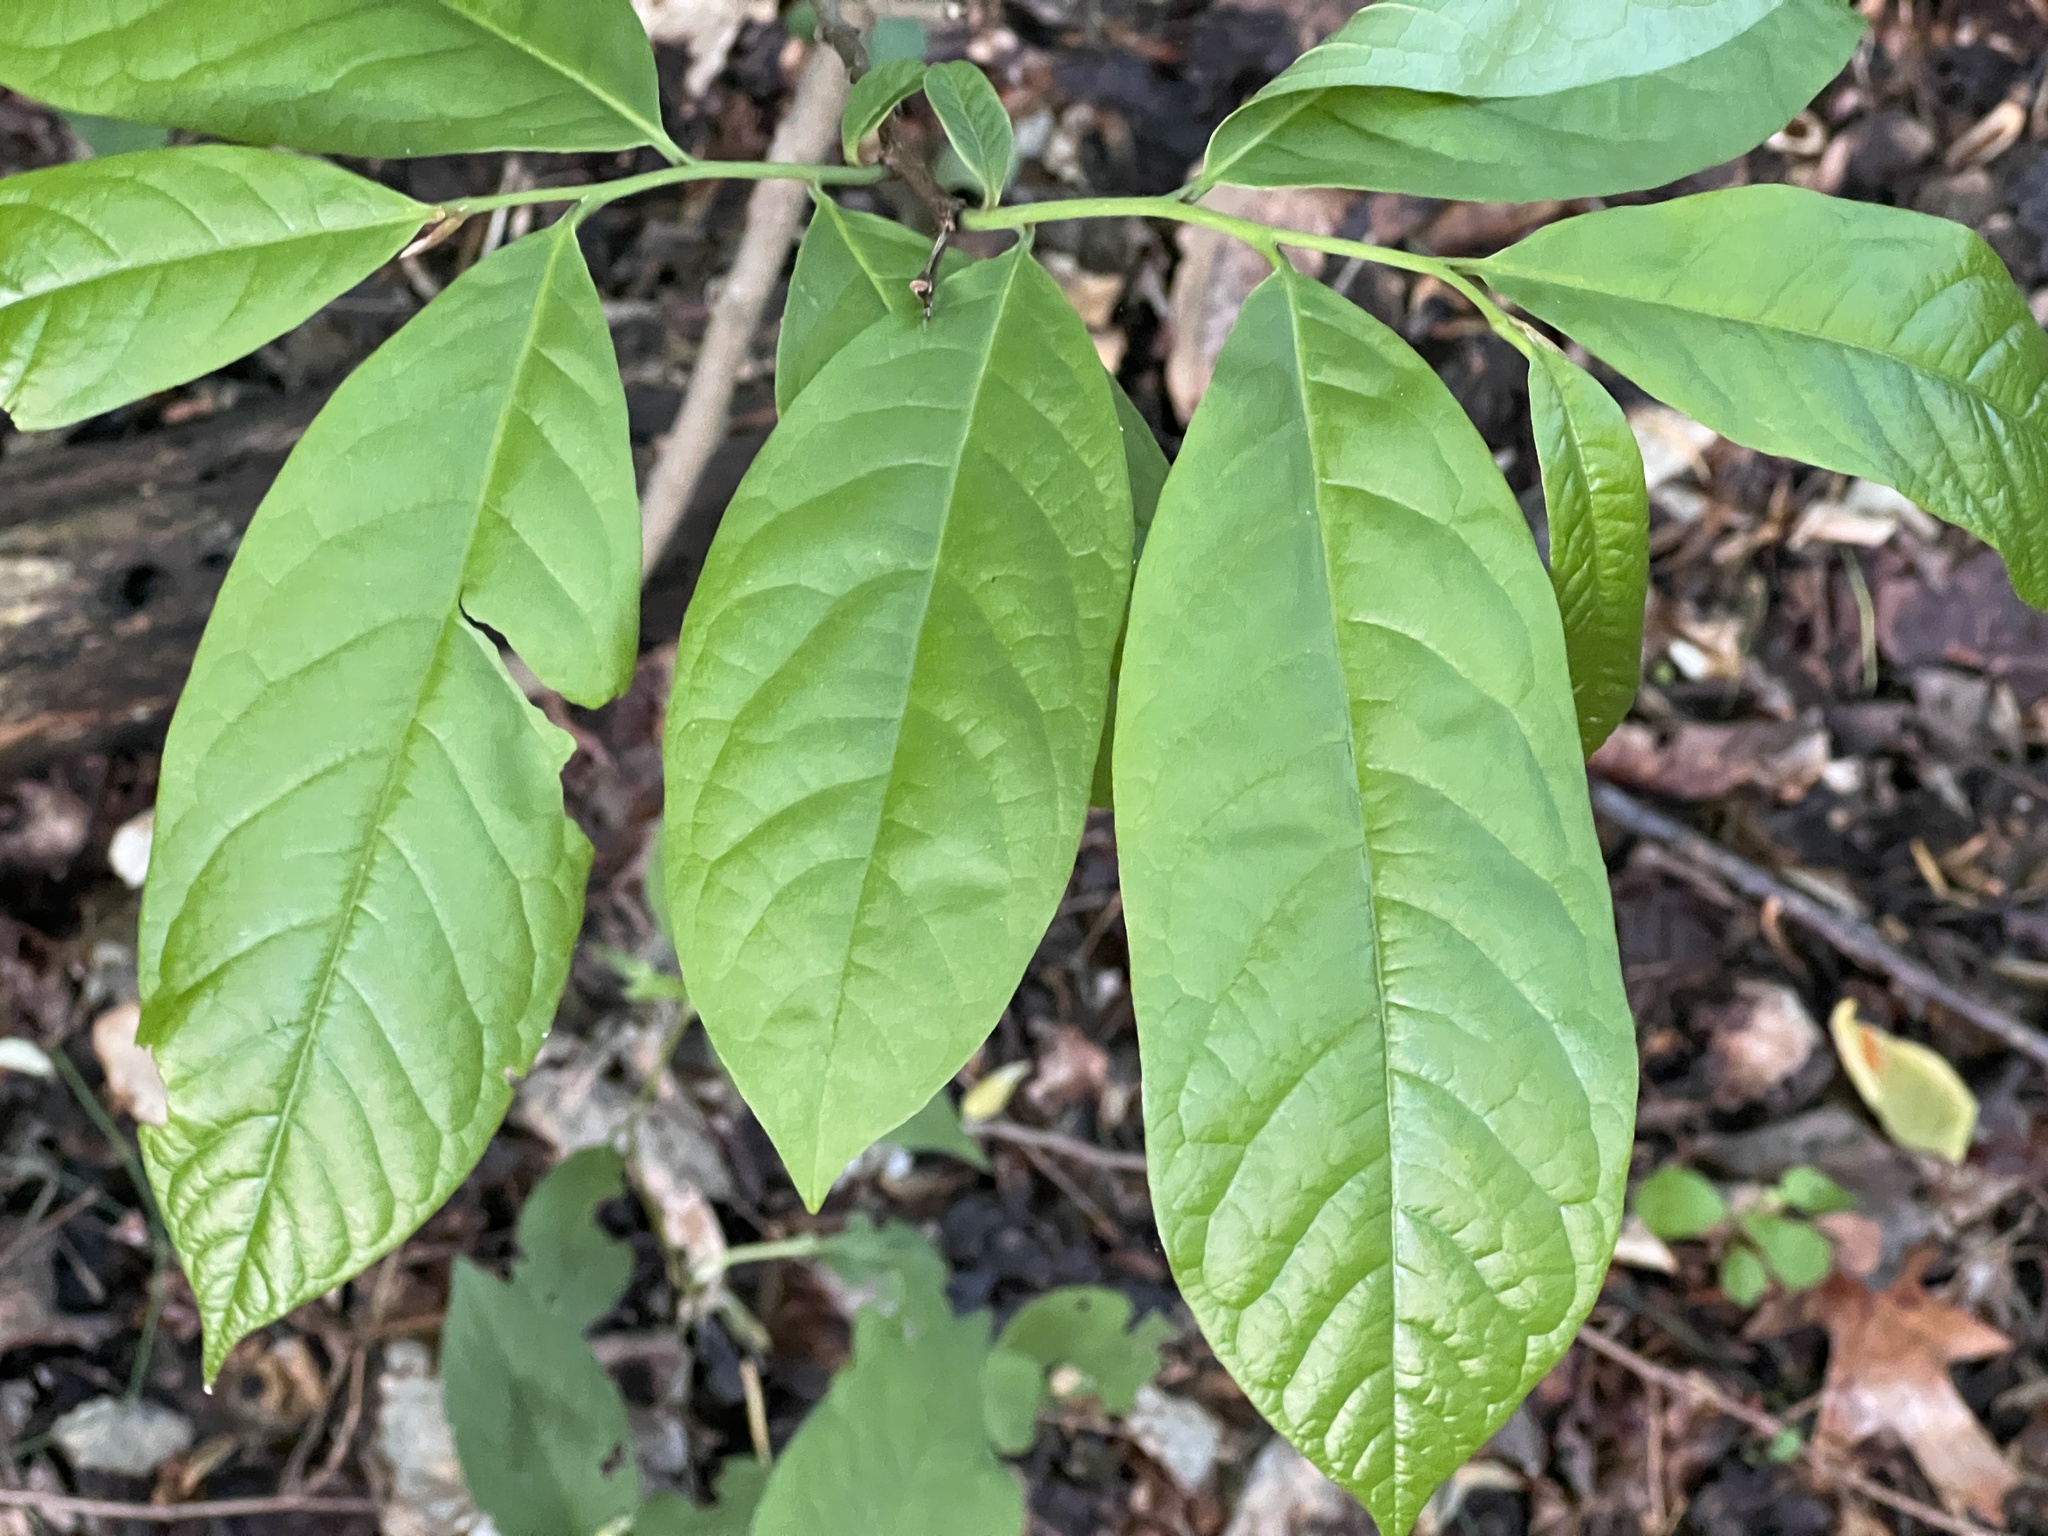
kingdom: Plantae
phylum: Tracheophyta
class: Magnoliopsida
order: Magnoliales
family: Annonaceae
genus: Asimina
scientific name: Asimina triloba
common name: Dog-banana
